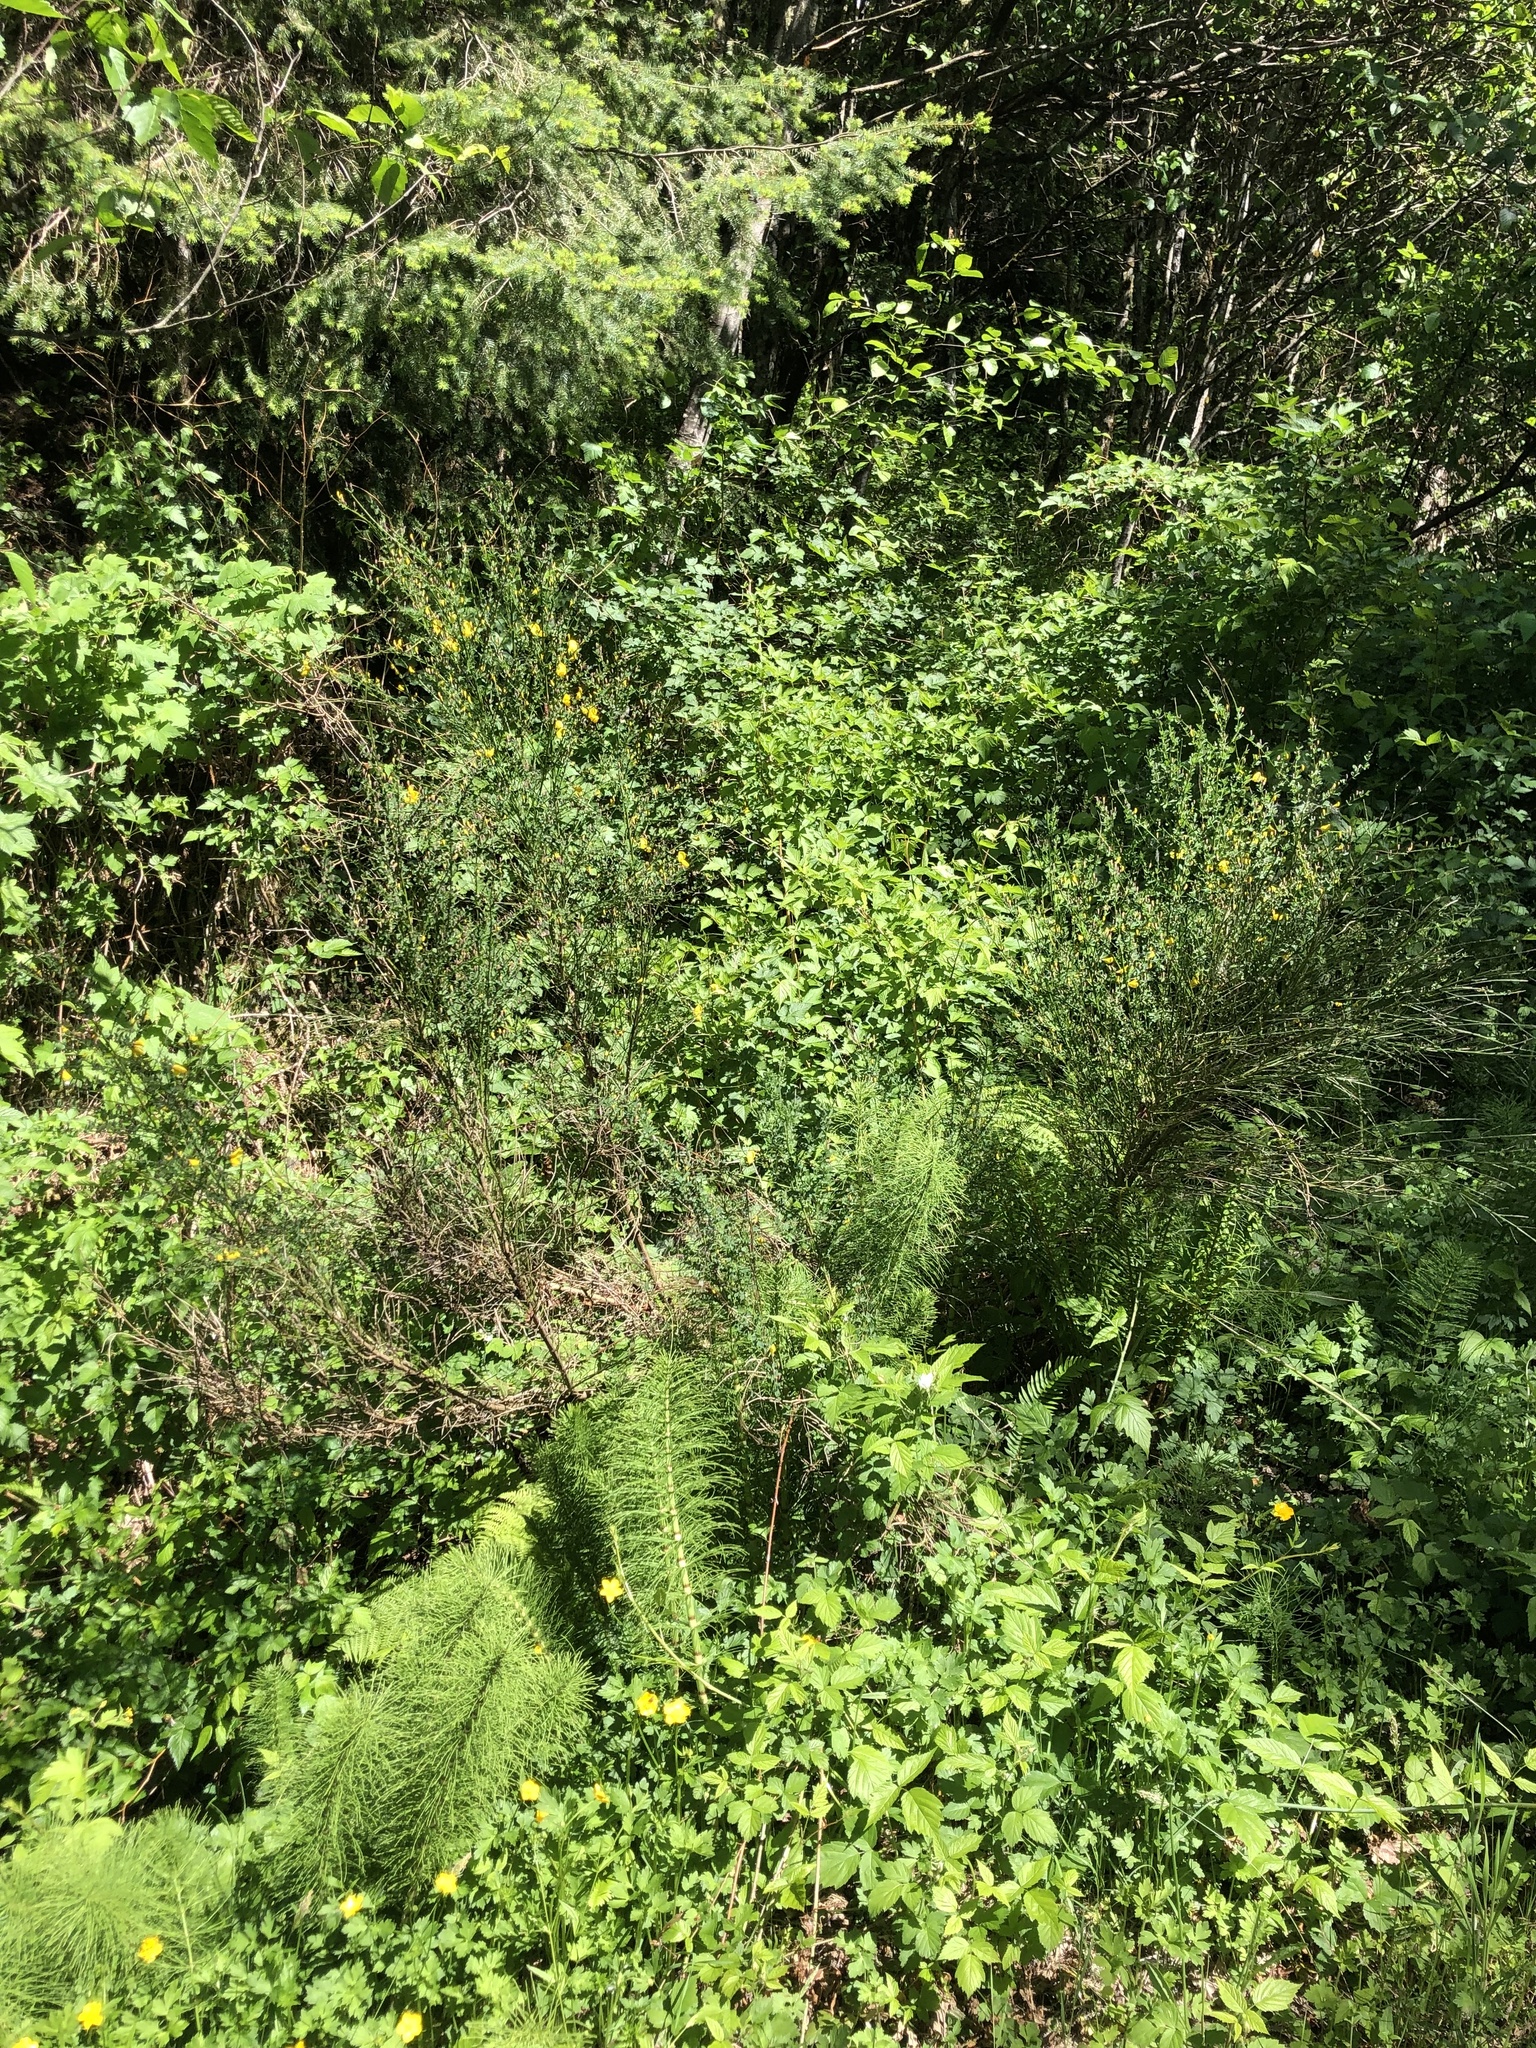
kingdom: Plantae
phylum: Tracheophyta
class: Magnoliopsida
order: Fabales
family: Fabaceae
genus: Cytisus
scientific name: Cytisus scoparius
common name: Scotch broom
